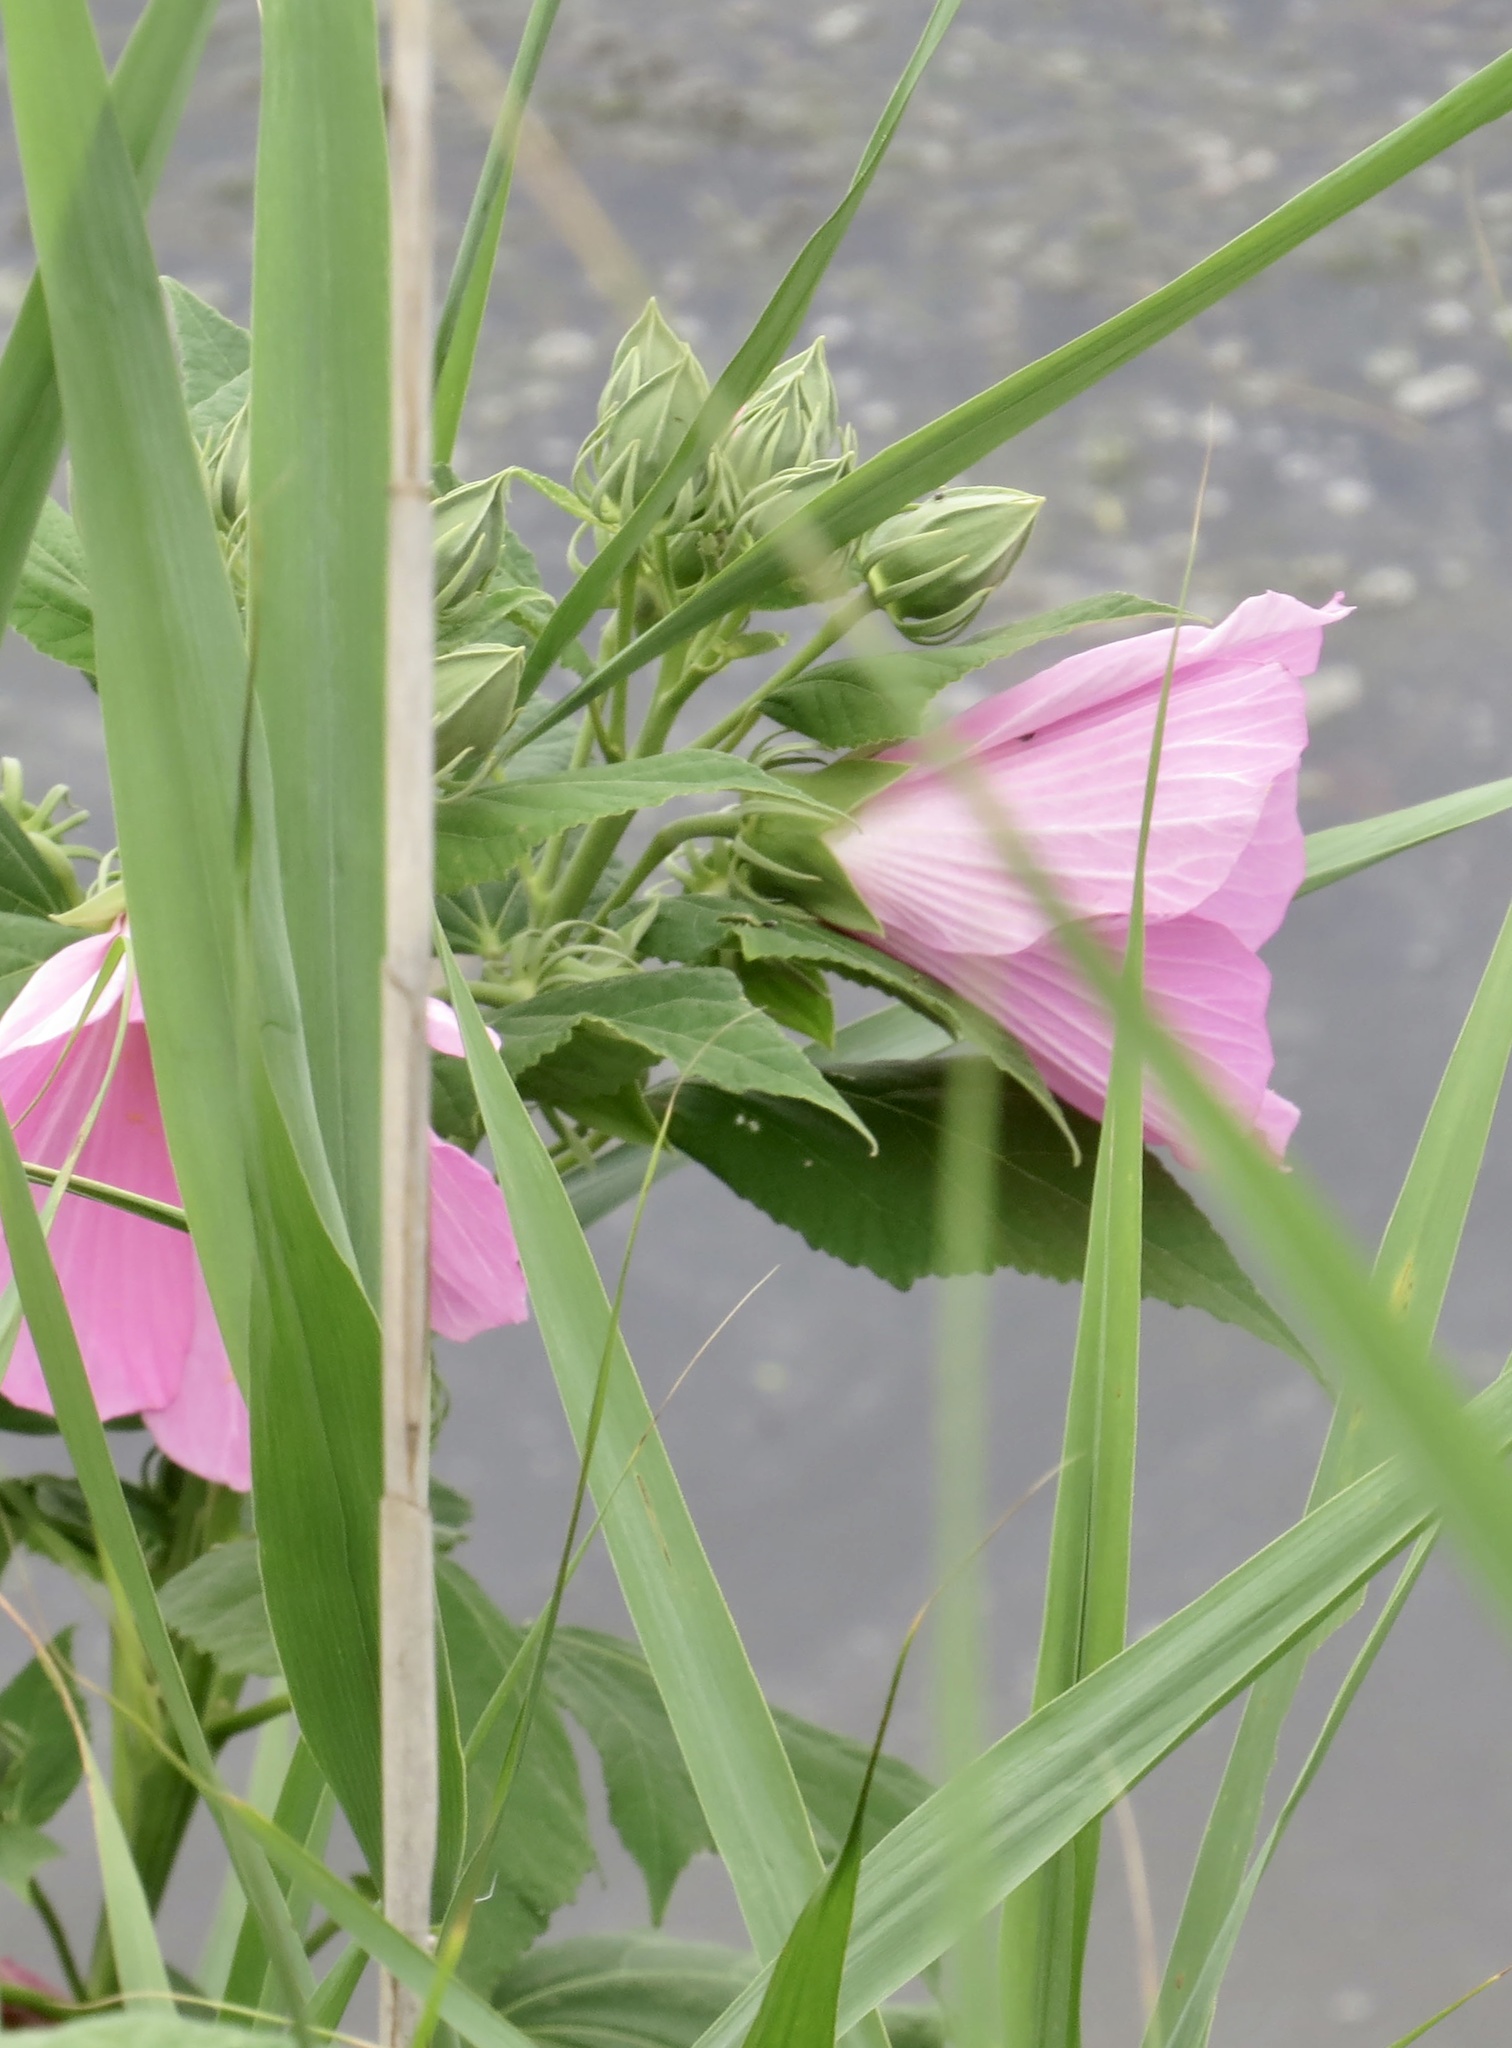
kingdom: Plantae
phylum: Tracheophyta
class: Magnoliopsida
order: Malvales
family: Malvaceae
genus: Hibiscus
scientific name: Hibiscus moscheutos
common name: Common rose-mallow
